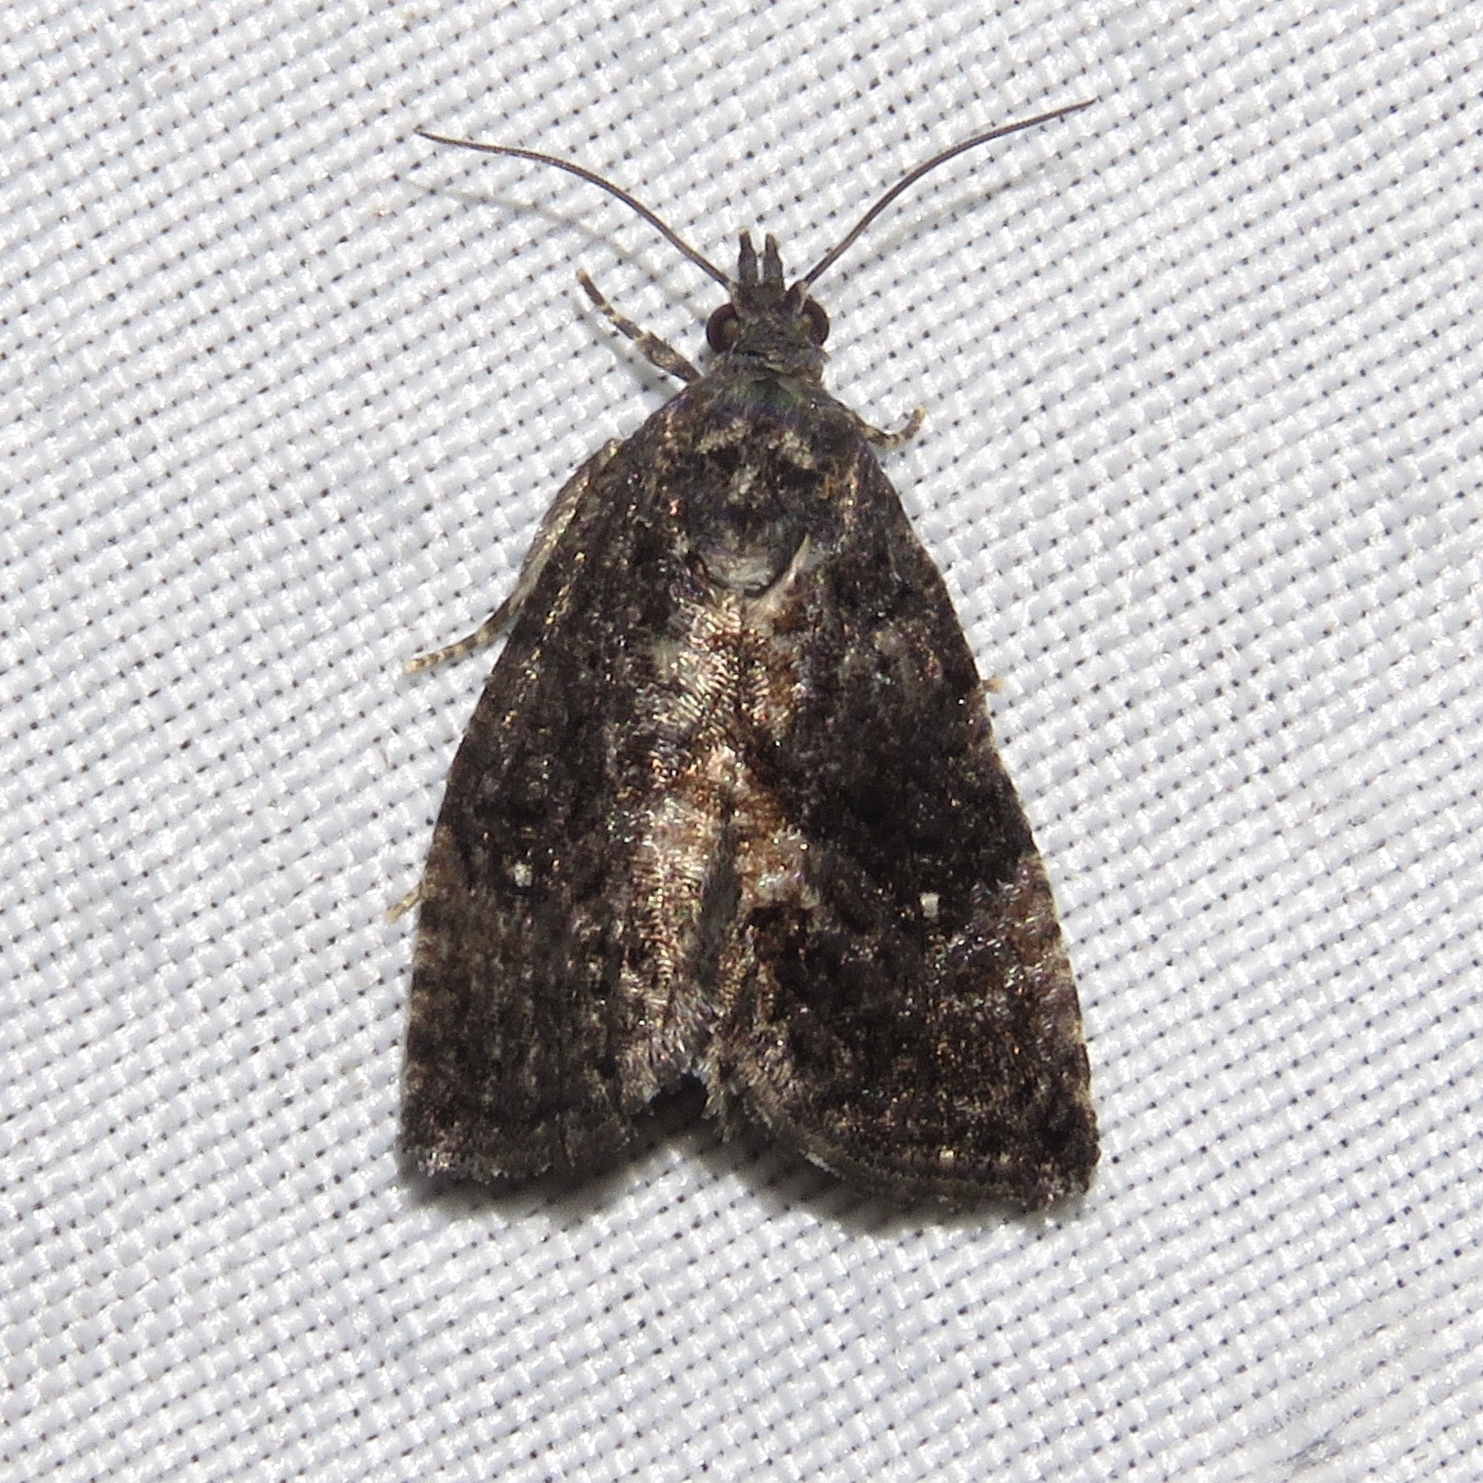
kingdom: Animalia
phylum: Arthropoda
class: Insecta
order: Lepidoptera
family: Tortricidae
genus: Gymnandrosoma
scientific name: Gymnandrosoma punctidiscanum
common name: Dotted ecdytolopha moth
